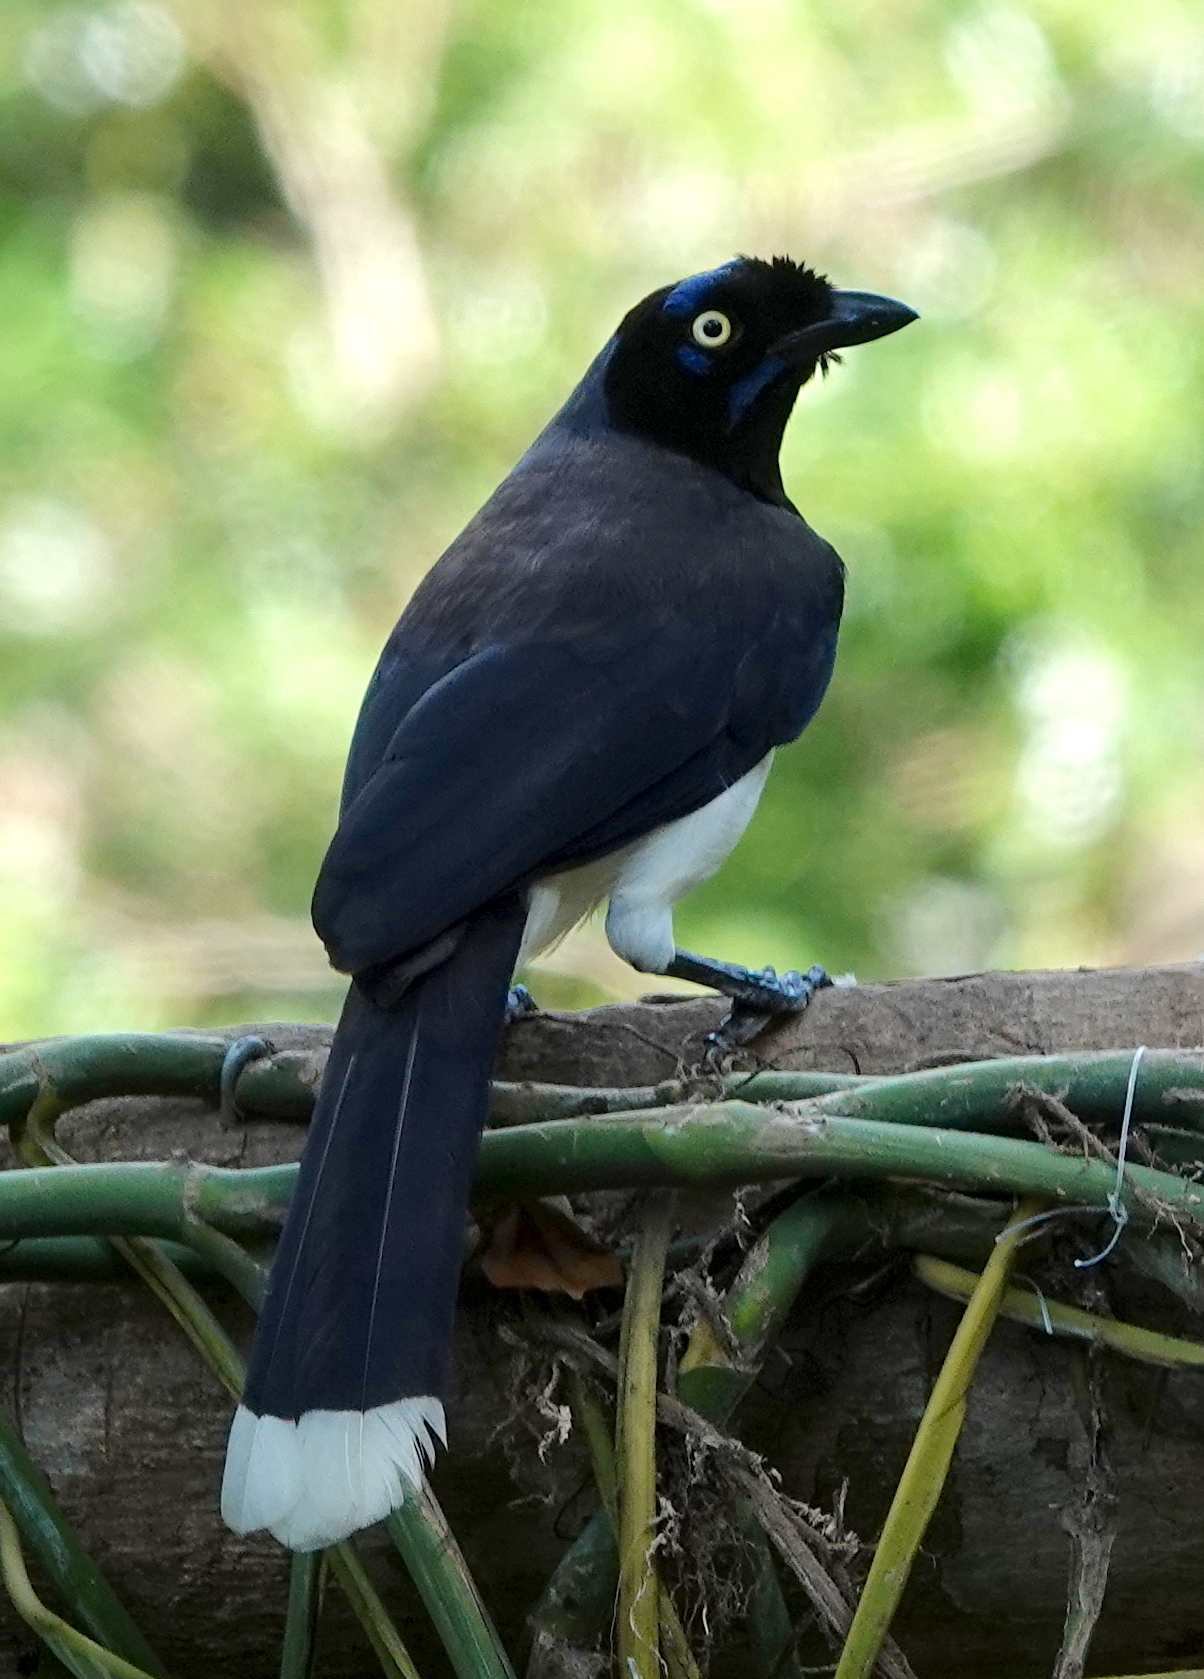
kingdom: Animalia
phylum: Chordata
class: Aves
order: Passeriformes
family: Corvidae
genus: Cyanocorax
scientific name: Cyanocorax affinis
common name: Black-chested jay
